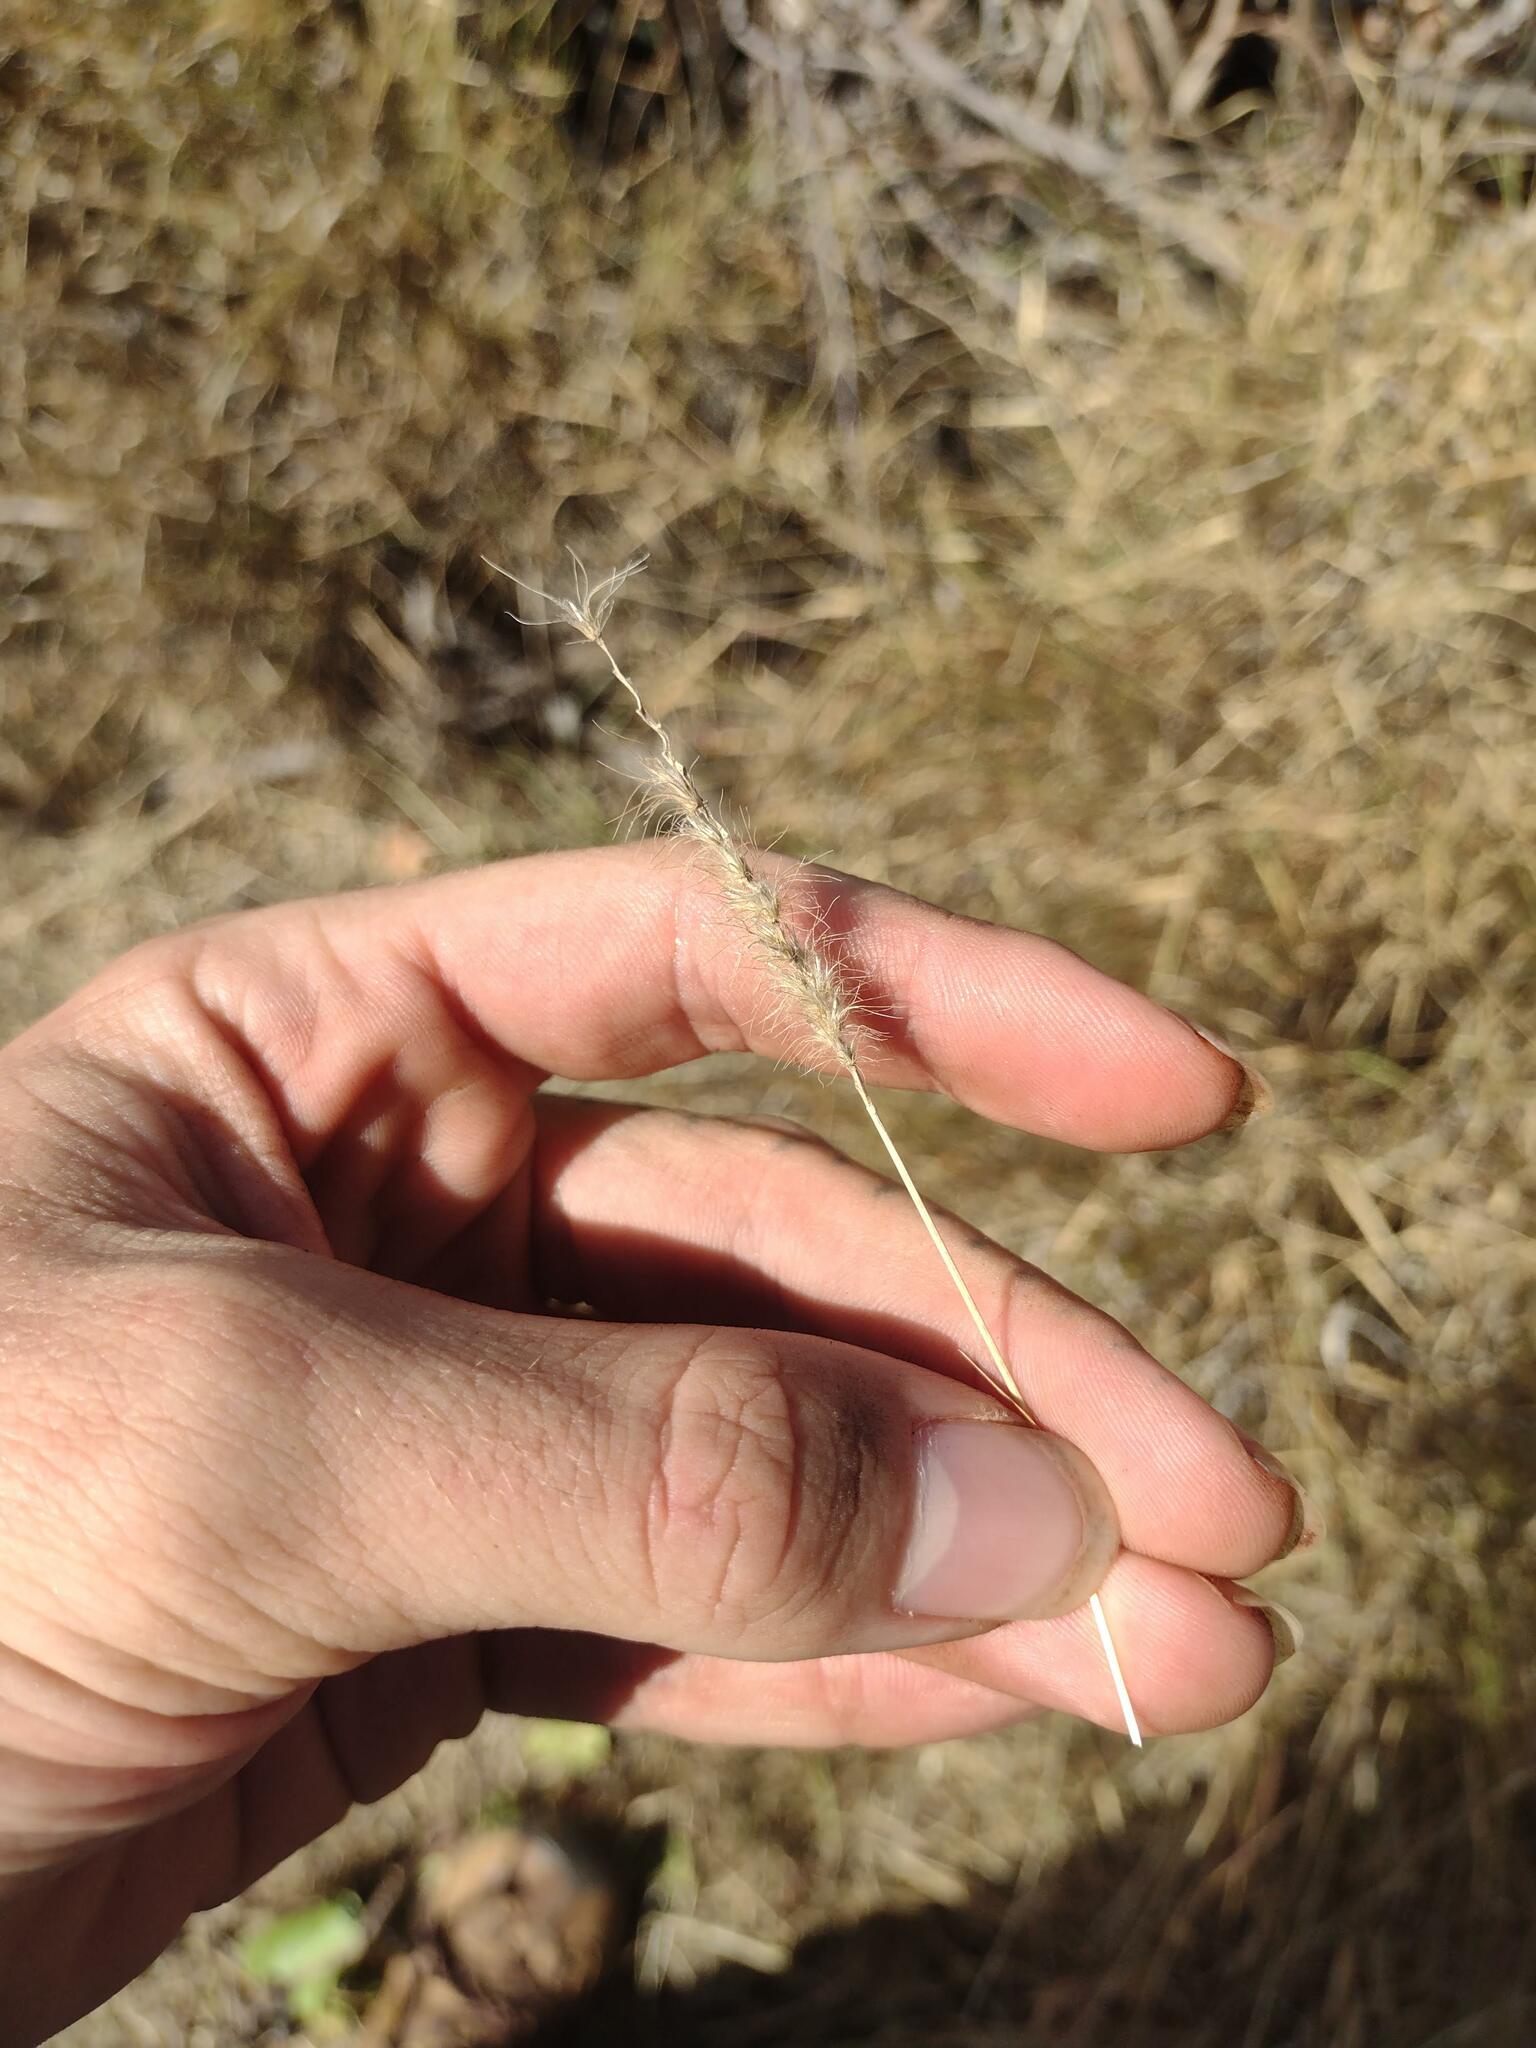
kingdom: Plantae
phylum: Tracheophyta
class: Liliopsida
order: Poales
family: Poaceae
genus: Cenchrus
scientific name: Cenchrus ciliaris
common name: Buffelgrass
